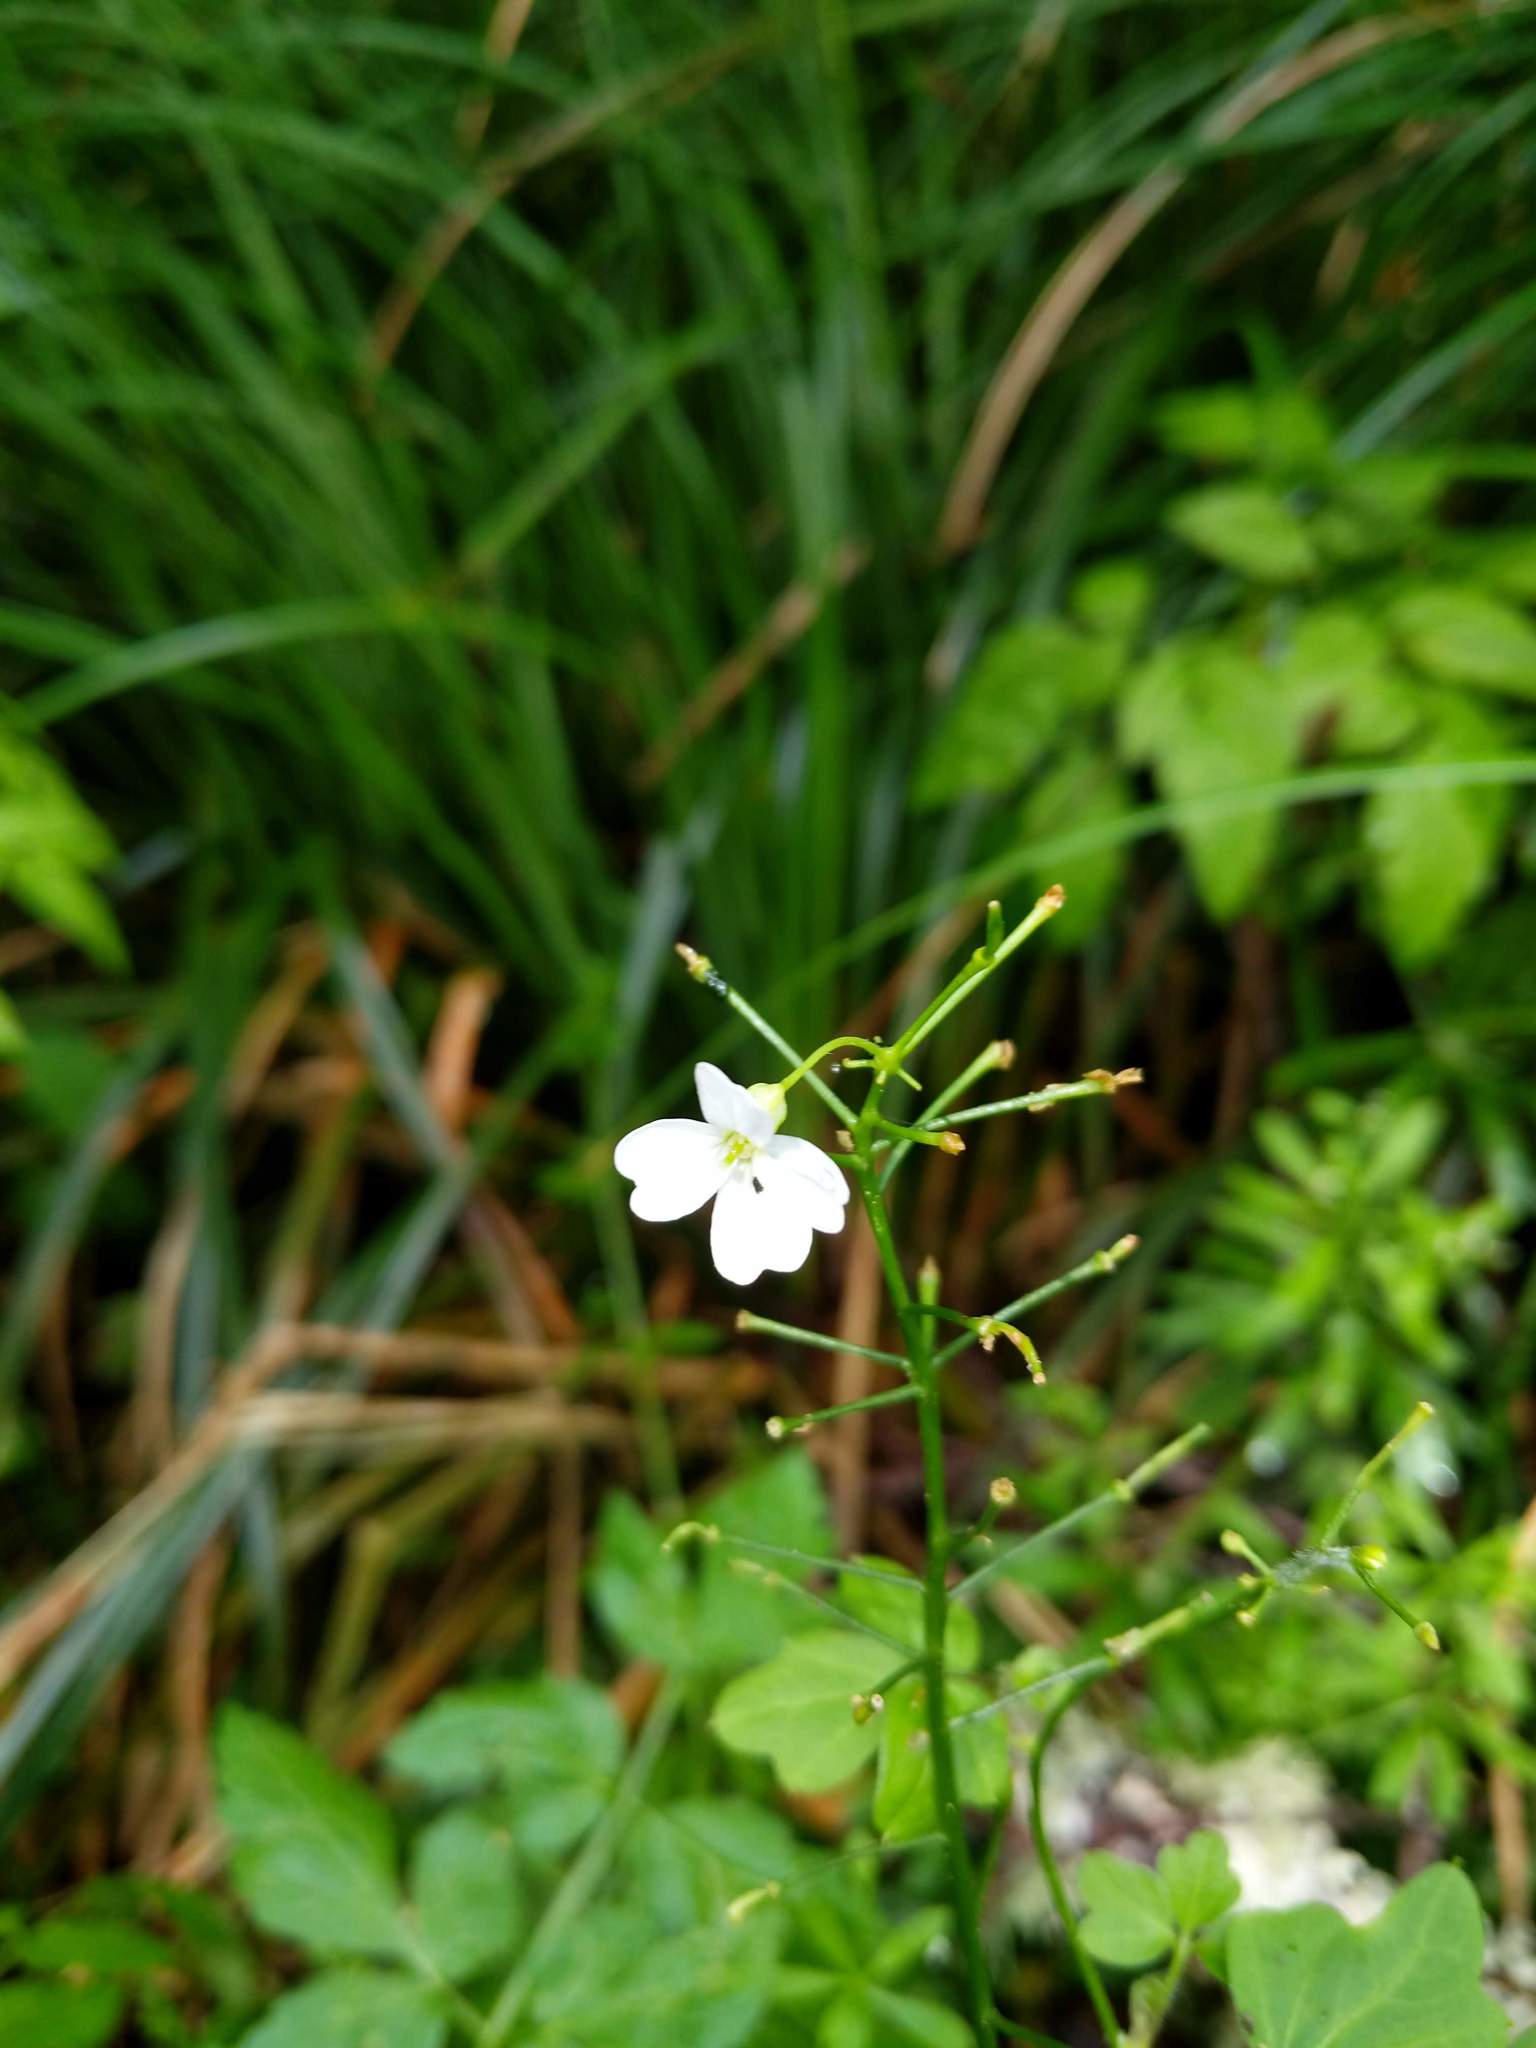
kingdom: Plantae
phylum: Tracheophyta
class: Magnoliopsida
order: Brassicales
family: Brassicaceae
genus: Cardamine
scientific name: Cardamine angulata
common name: Angled bittercress
